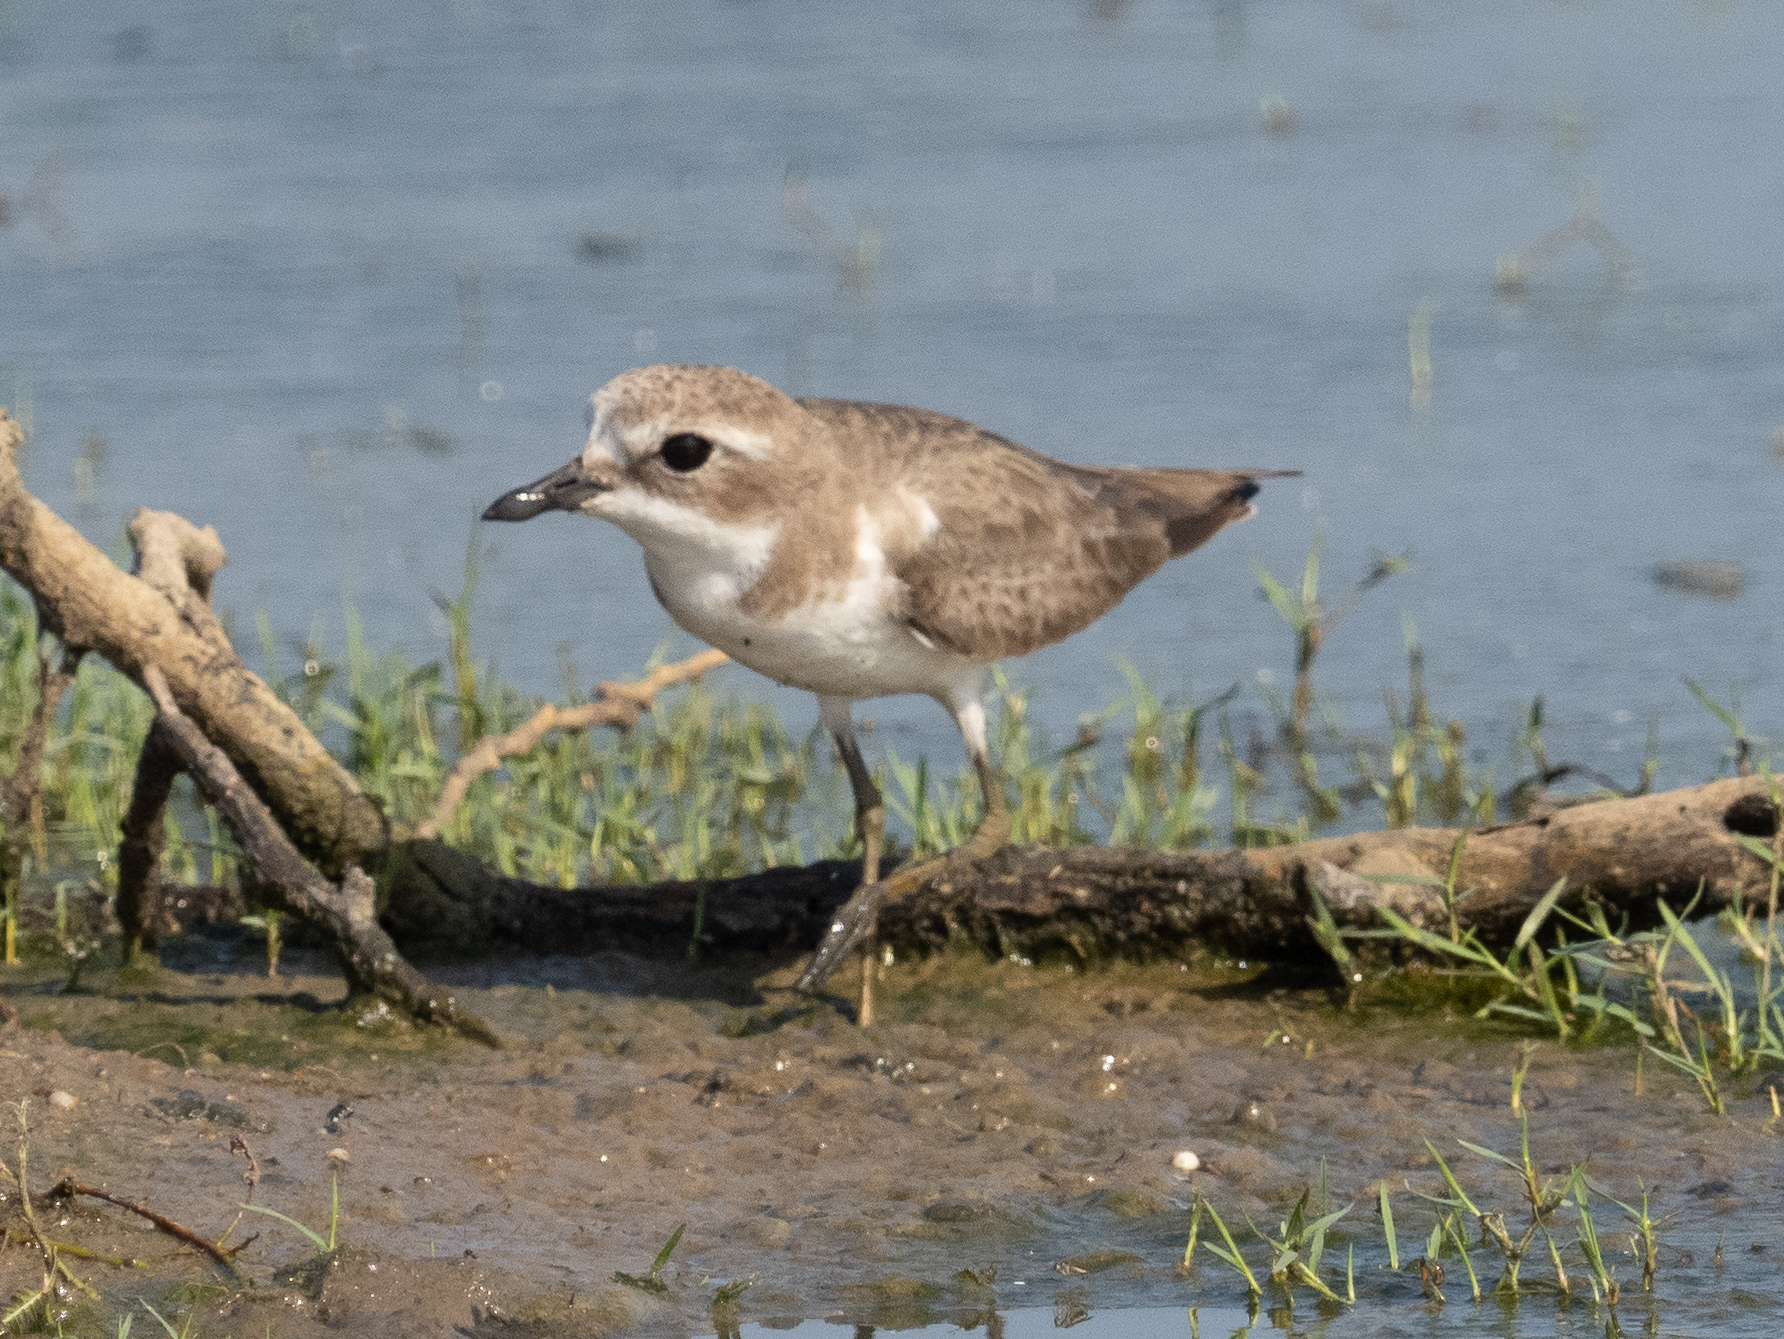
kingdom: Animalia
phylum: Chordata
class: Aves
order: Charadriiformes
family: Charadriidae
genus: Anarhynchus
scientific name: Anarhynchus
